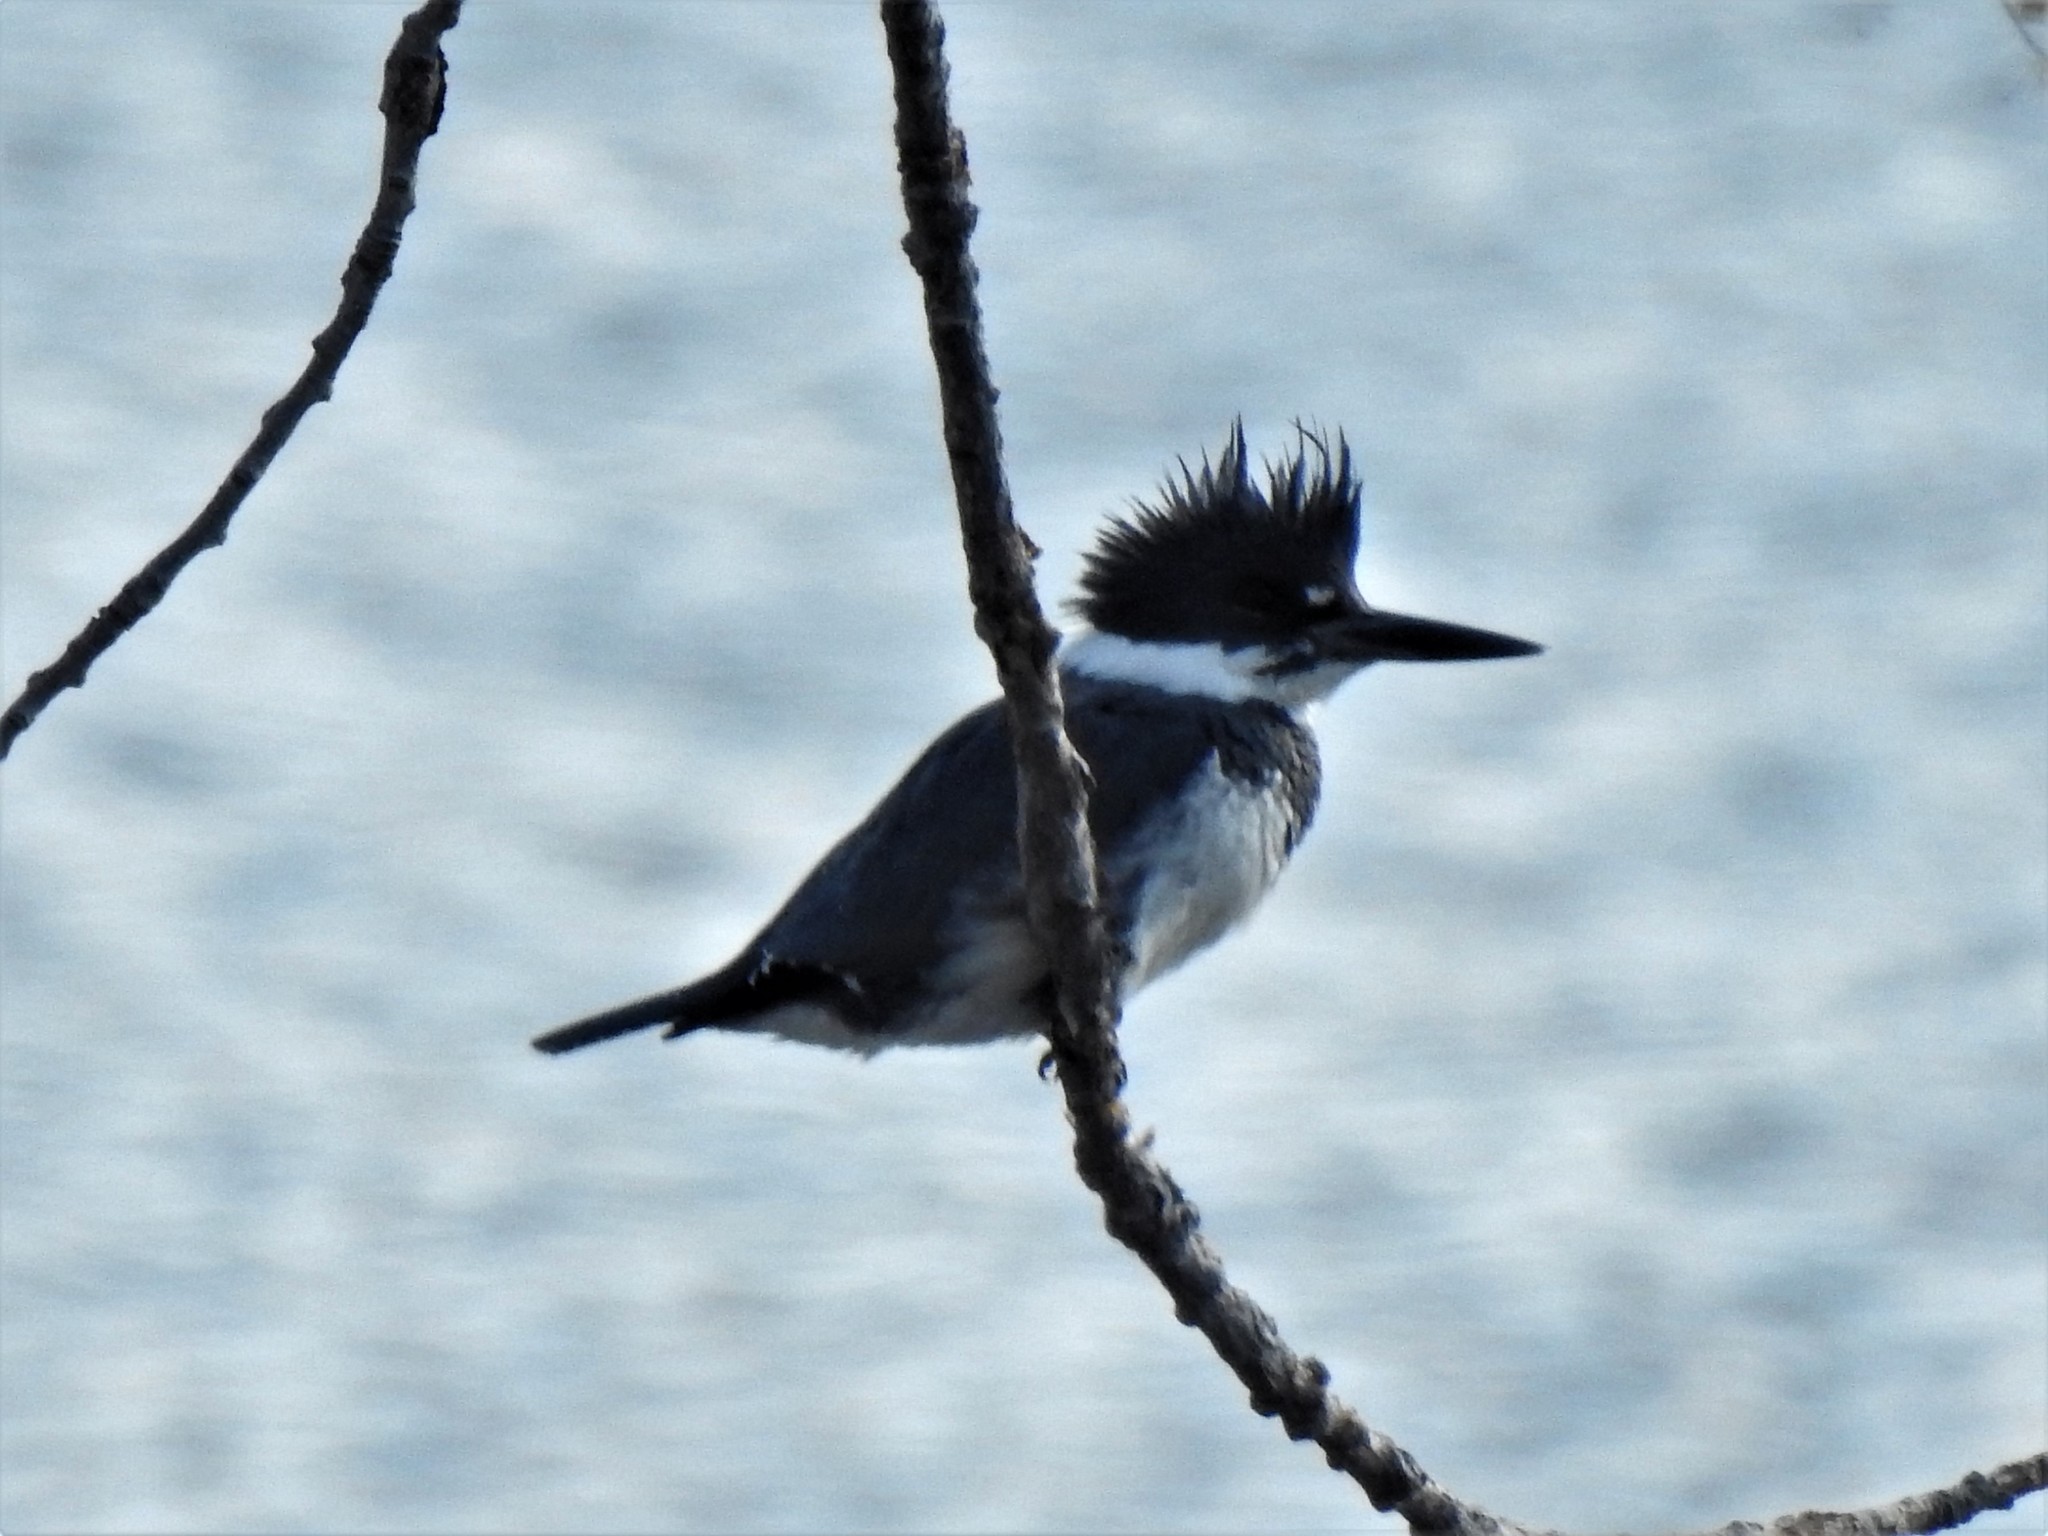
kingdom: Animalia
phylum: Chordata
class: Aves
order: Coraciiformes
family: Alcedinidae
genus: Megaceryle
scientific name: Megaceryle alcyon
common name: Belted kingfisher
